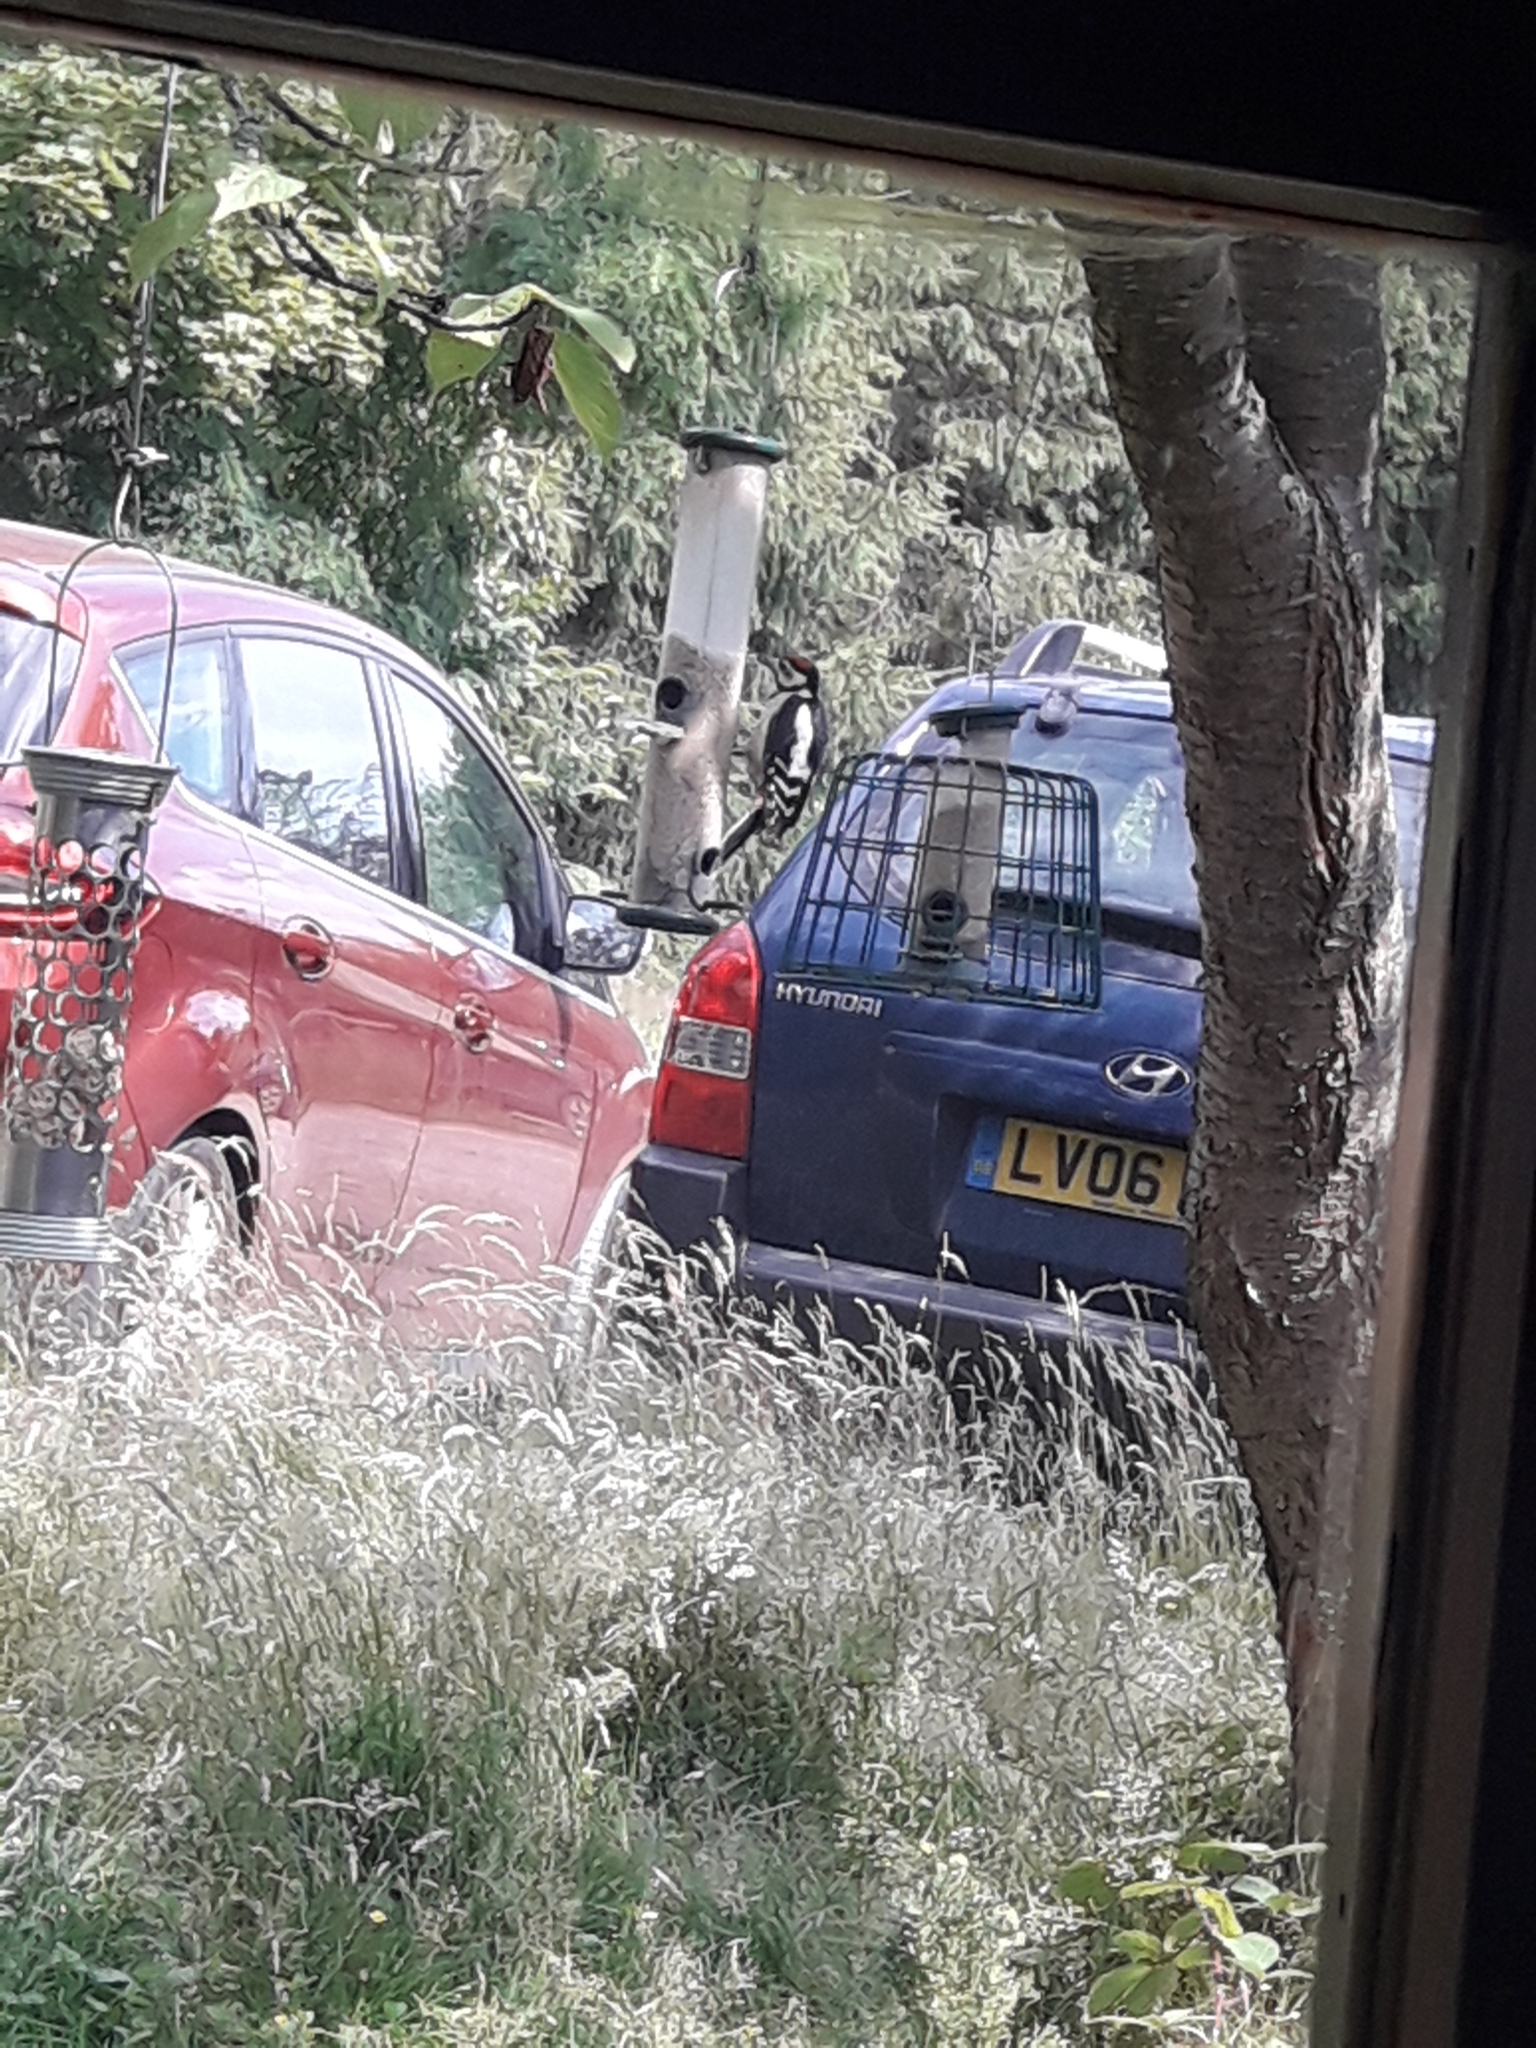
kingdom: Animalia
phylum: Chordata
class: Aves
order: Piciformes
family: Picidae
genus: Dendrocopos
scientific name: Dendrocopos major
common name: Great spotted woodpecker
